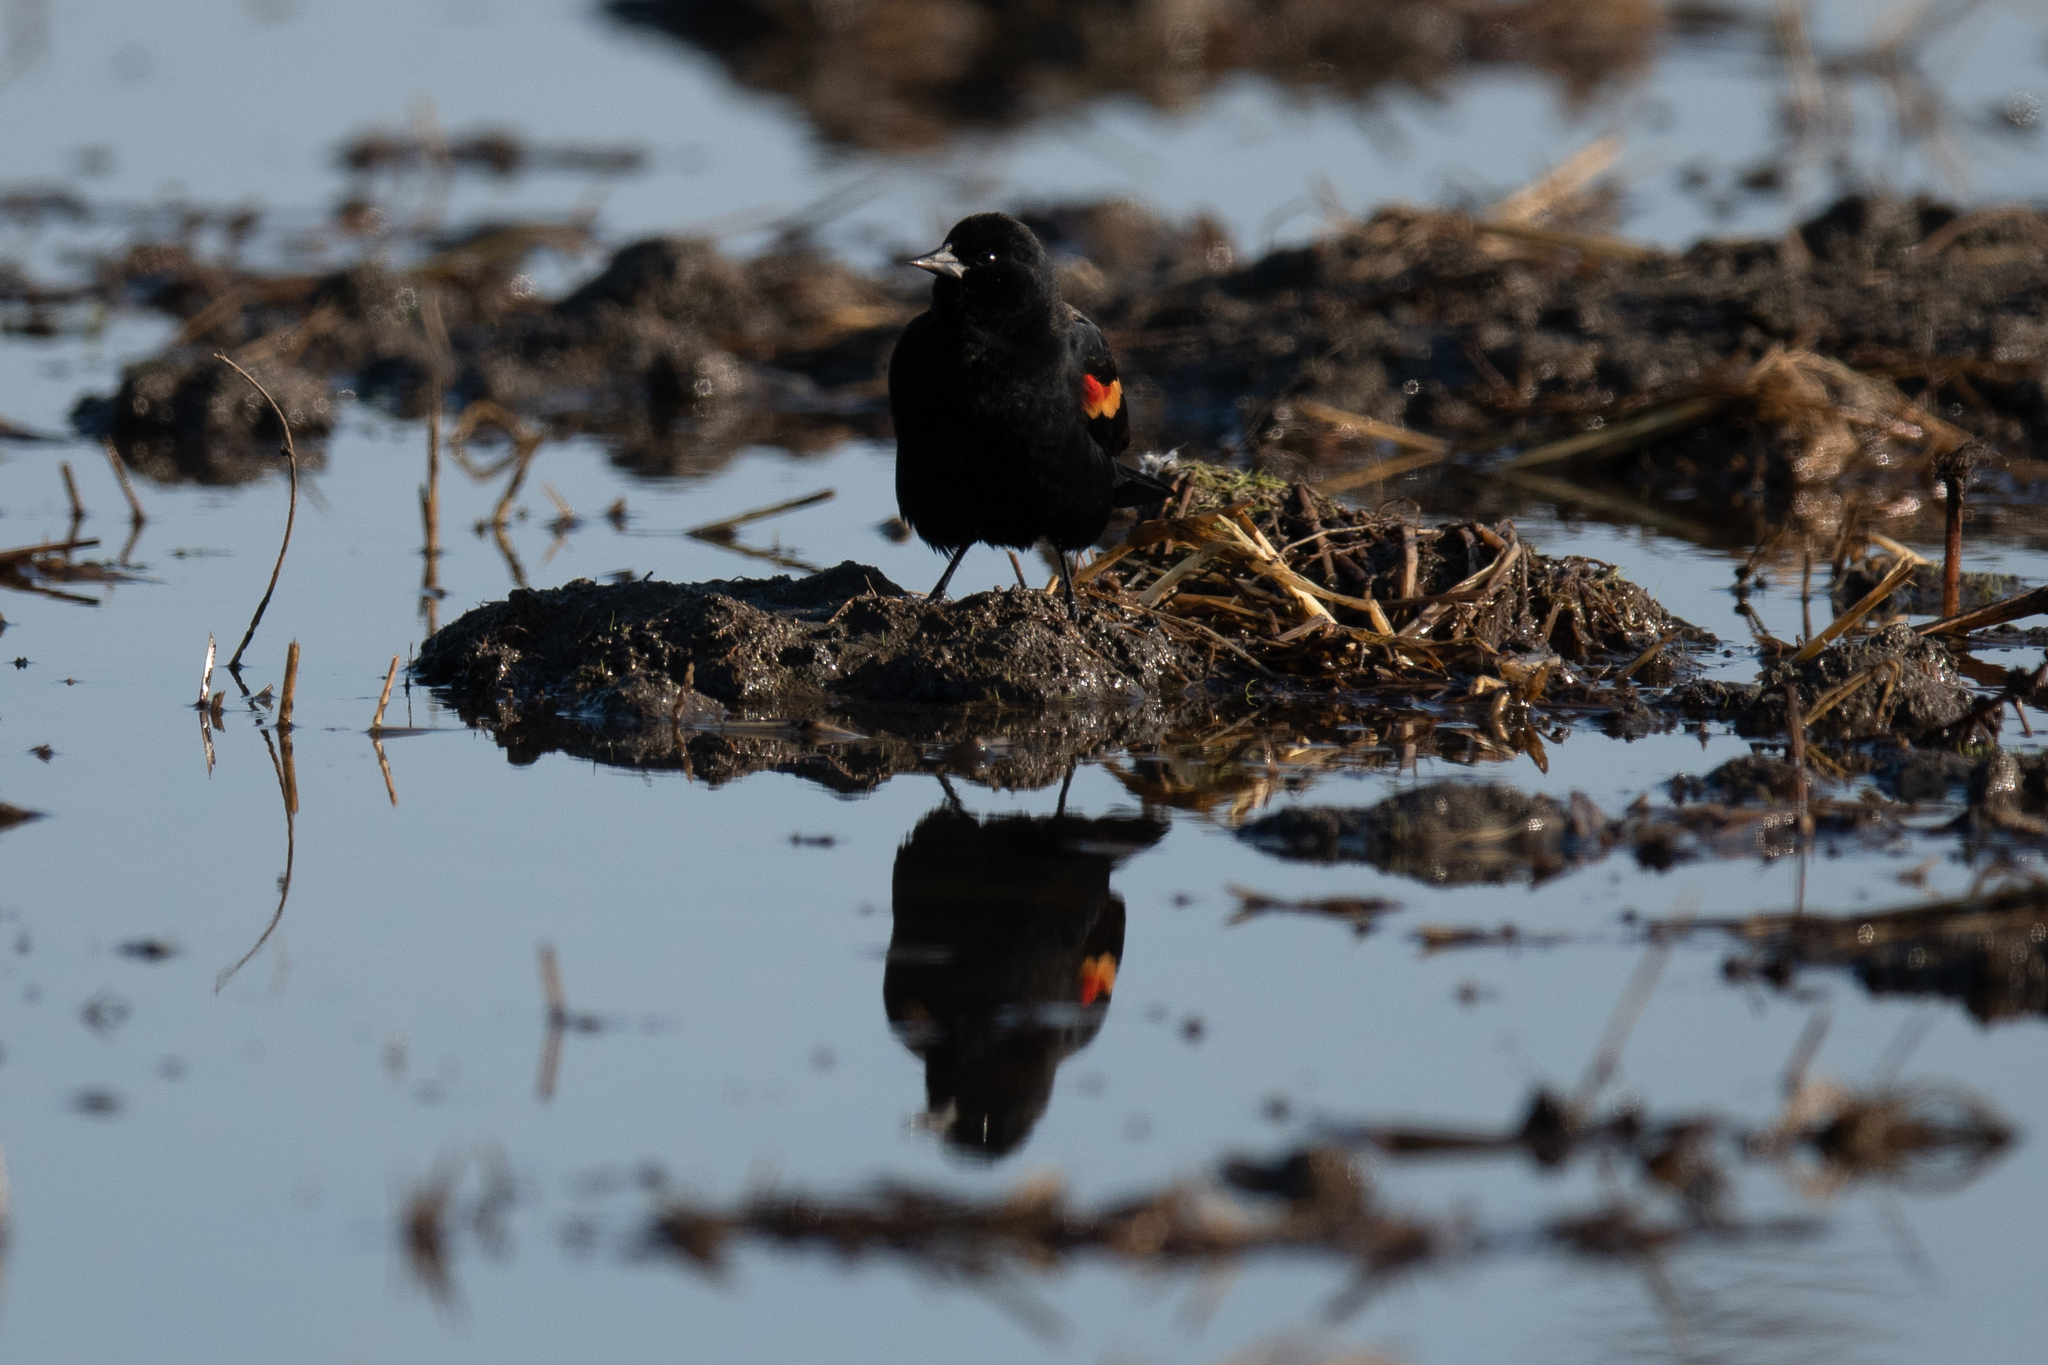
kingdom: Animalia
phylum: Chordata
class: Aves
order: Passeriformes
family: Icteridae
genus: Agelaius
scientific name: Agelaius phoeniceus
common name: Red-winged blackbird
